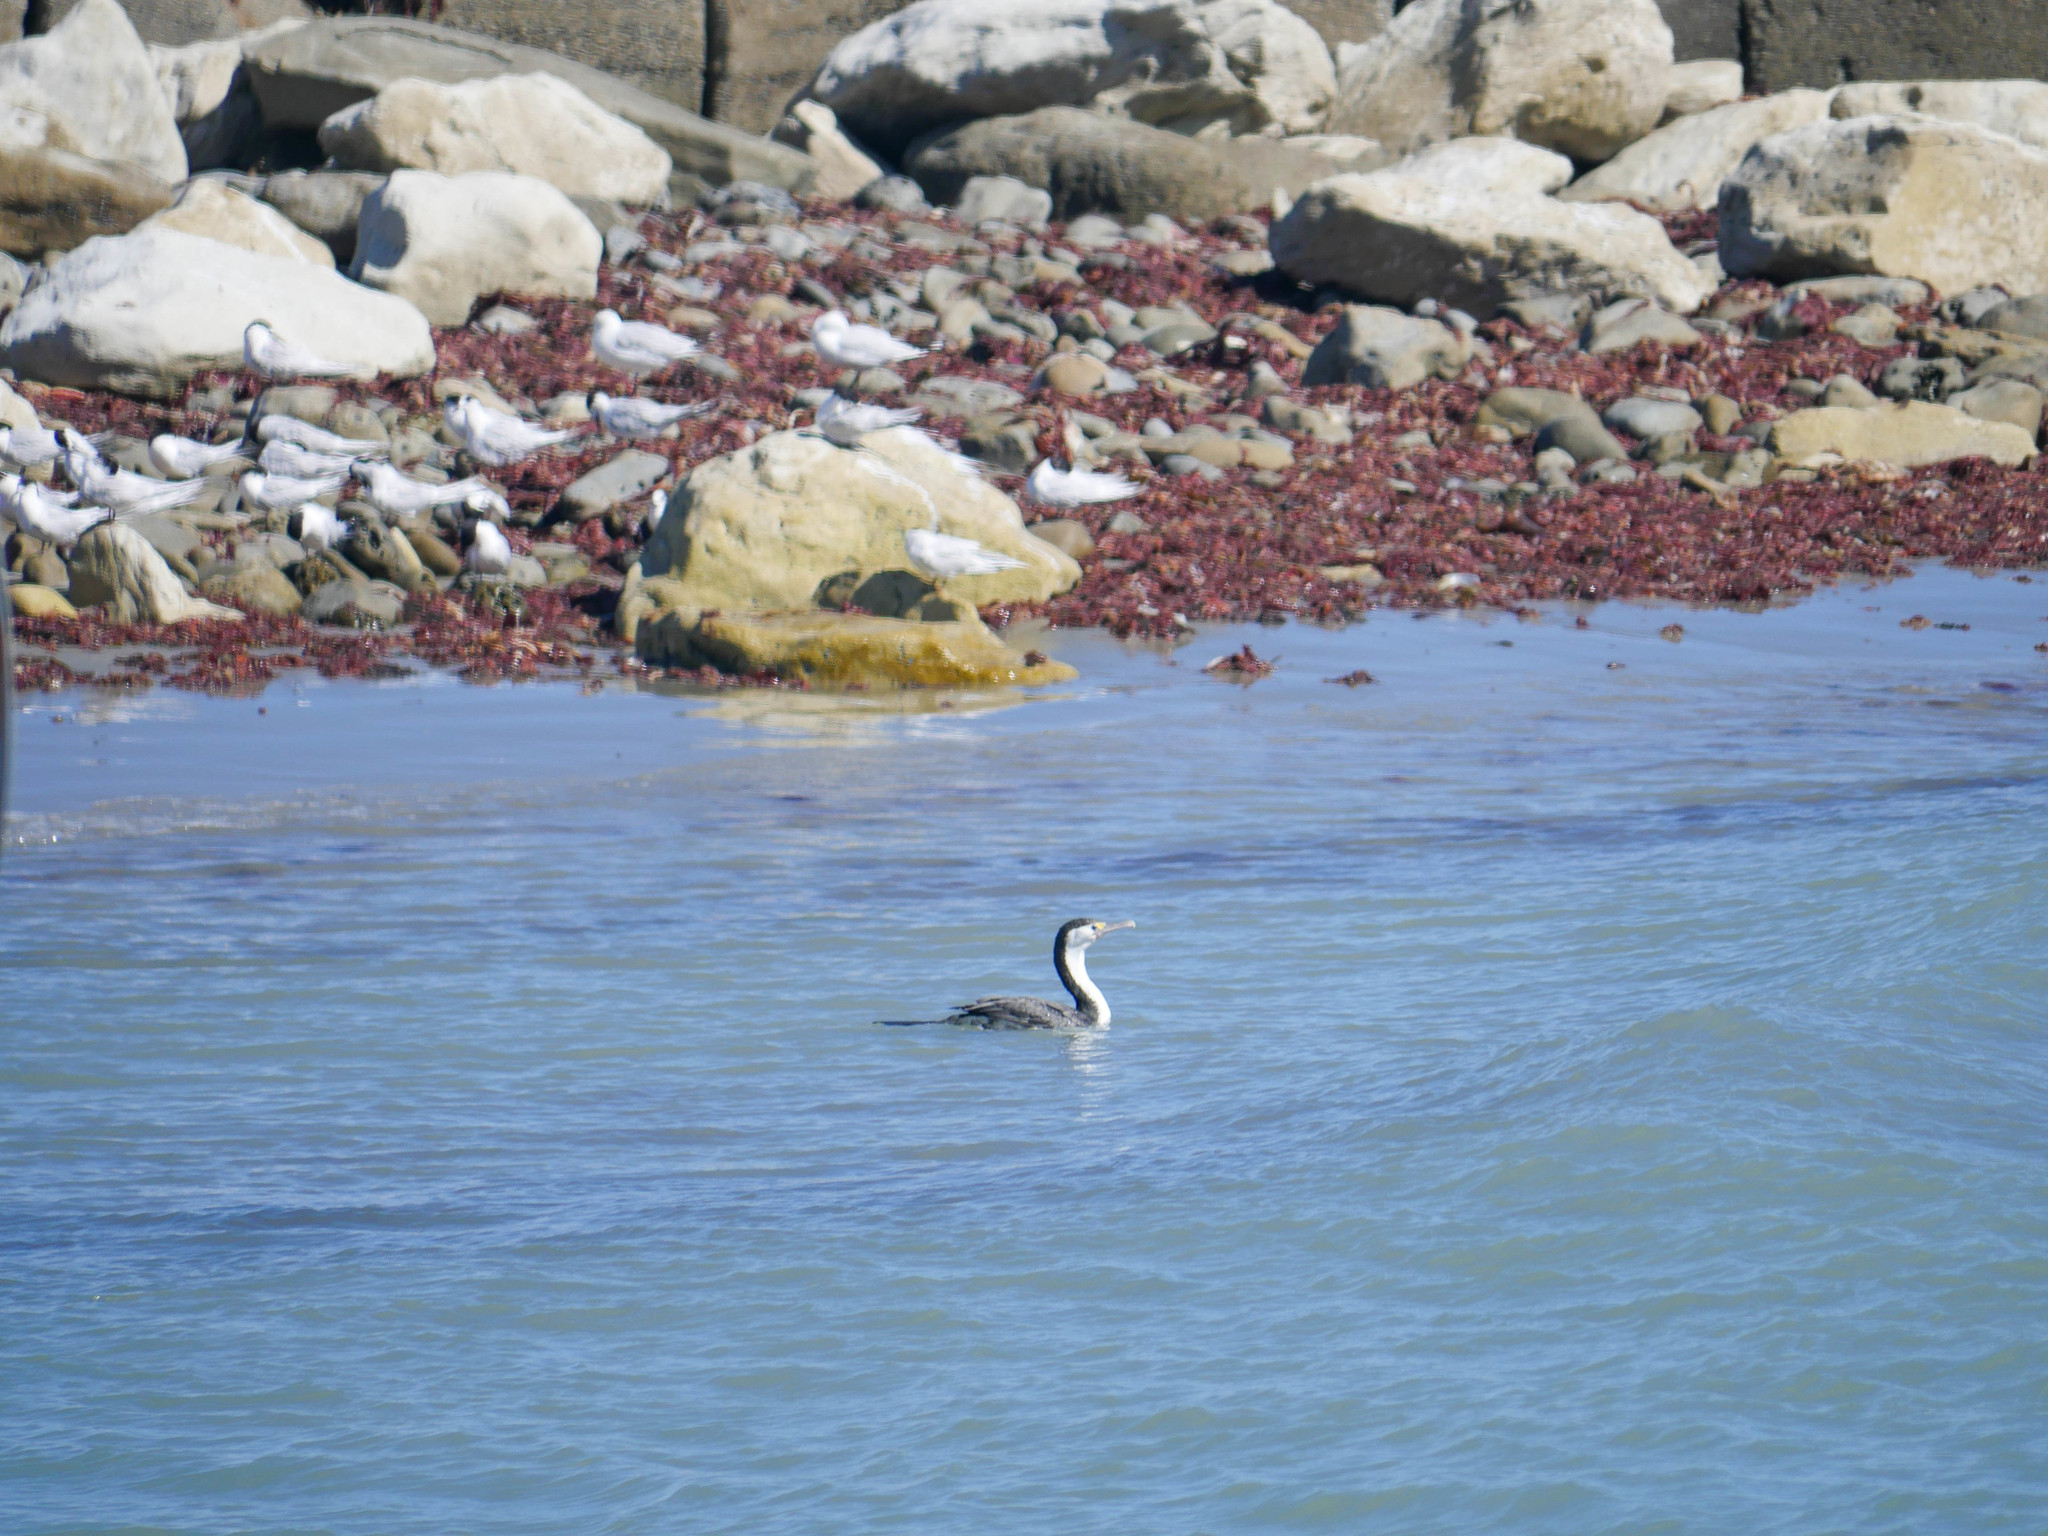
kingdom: Animalia
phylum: Chordata
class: Aves
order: Suliformes
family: Phalacrocoracidae
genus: Phalacrocorax
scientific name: Phalacrocorax varius
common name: Pied cormorant
